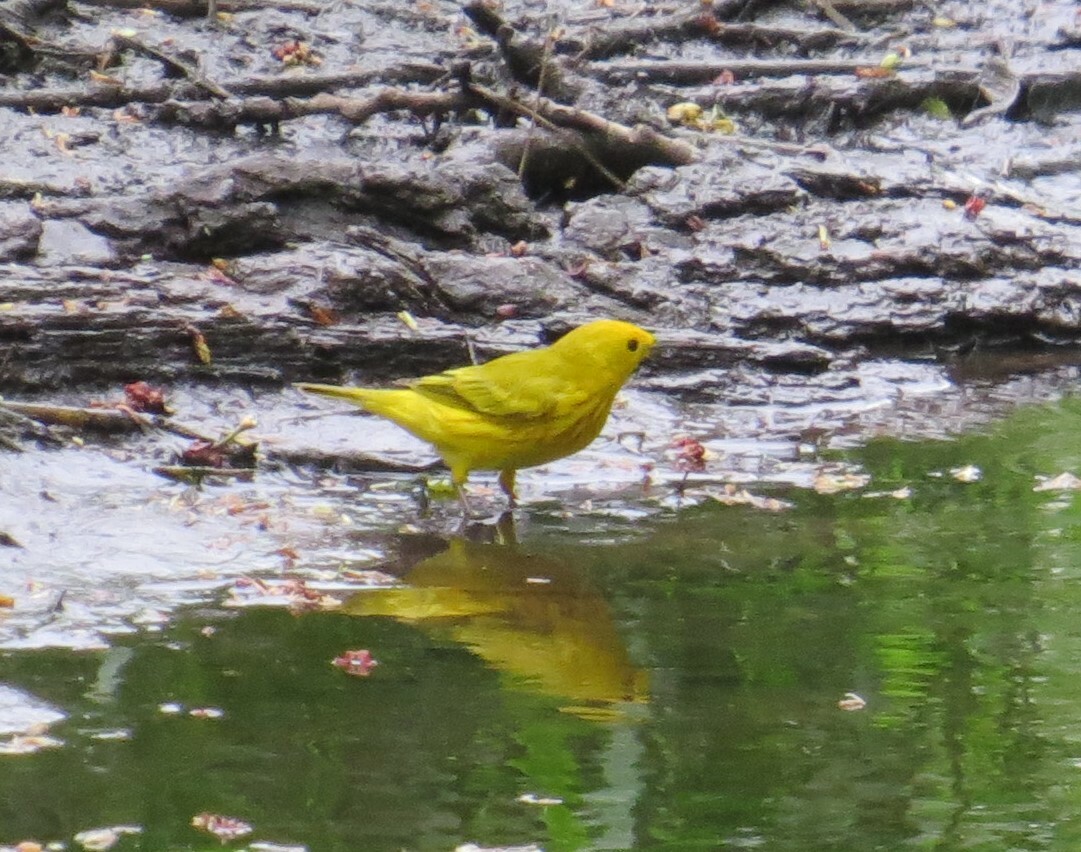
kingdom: Animalia
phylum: Chordata
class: Aves
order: Passeriformes
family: Parulidae
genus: Setophaga
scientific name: Setophaga petechia
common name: Yellow warbler
